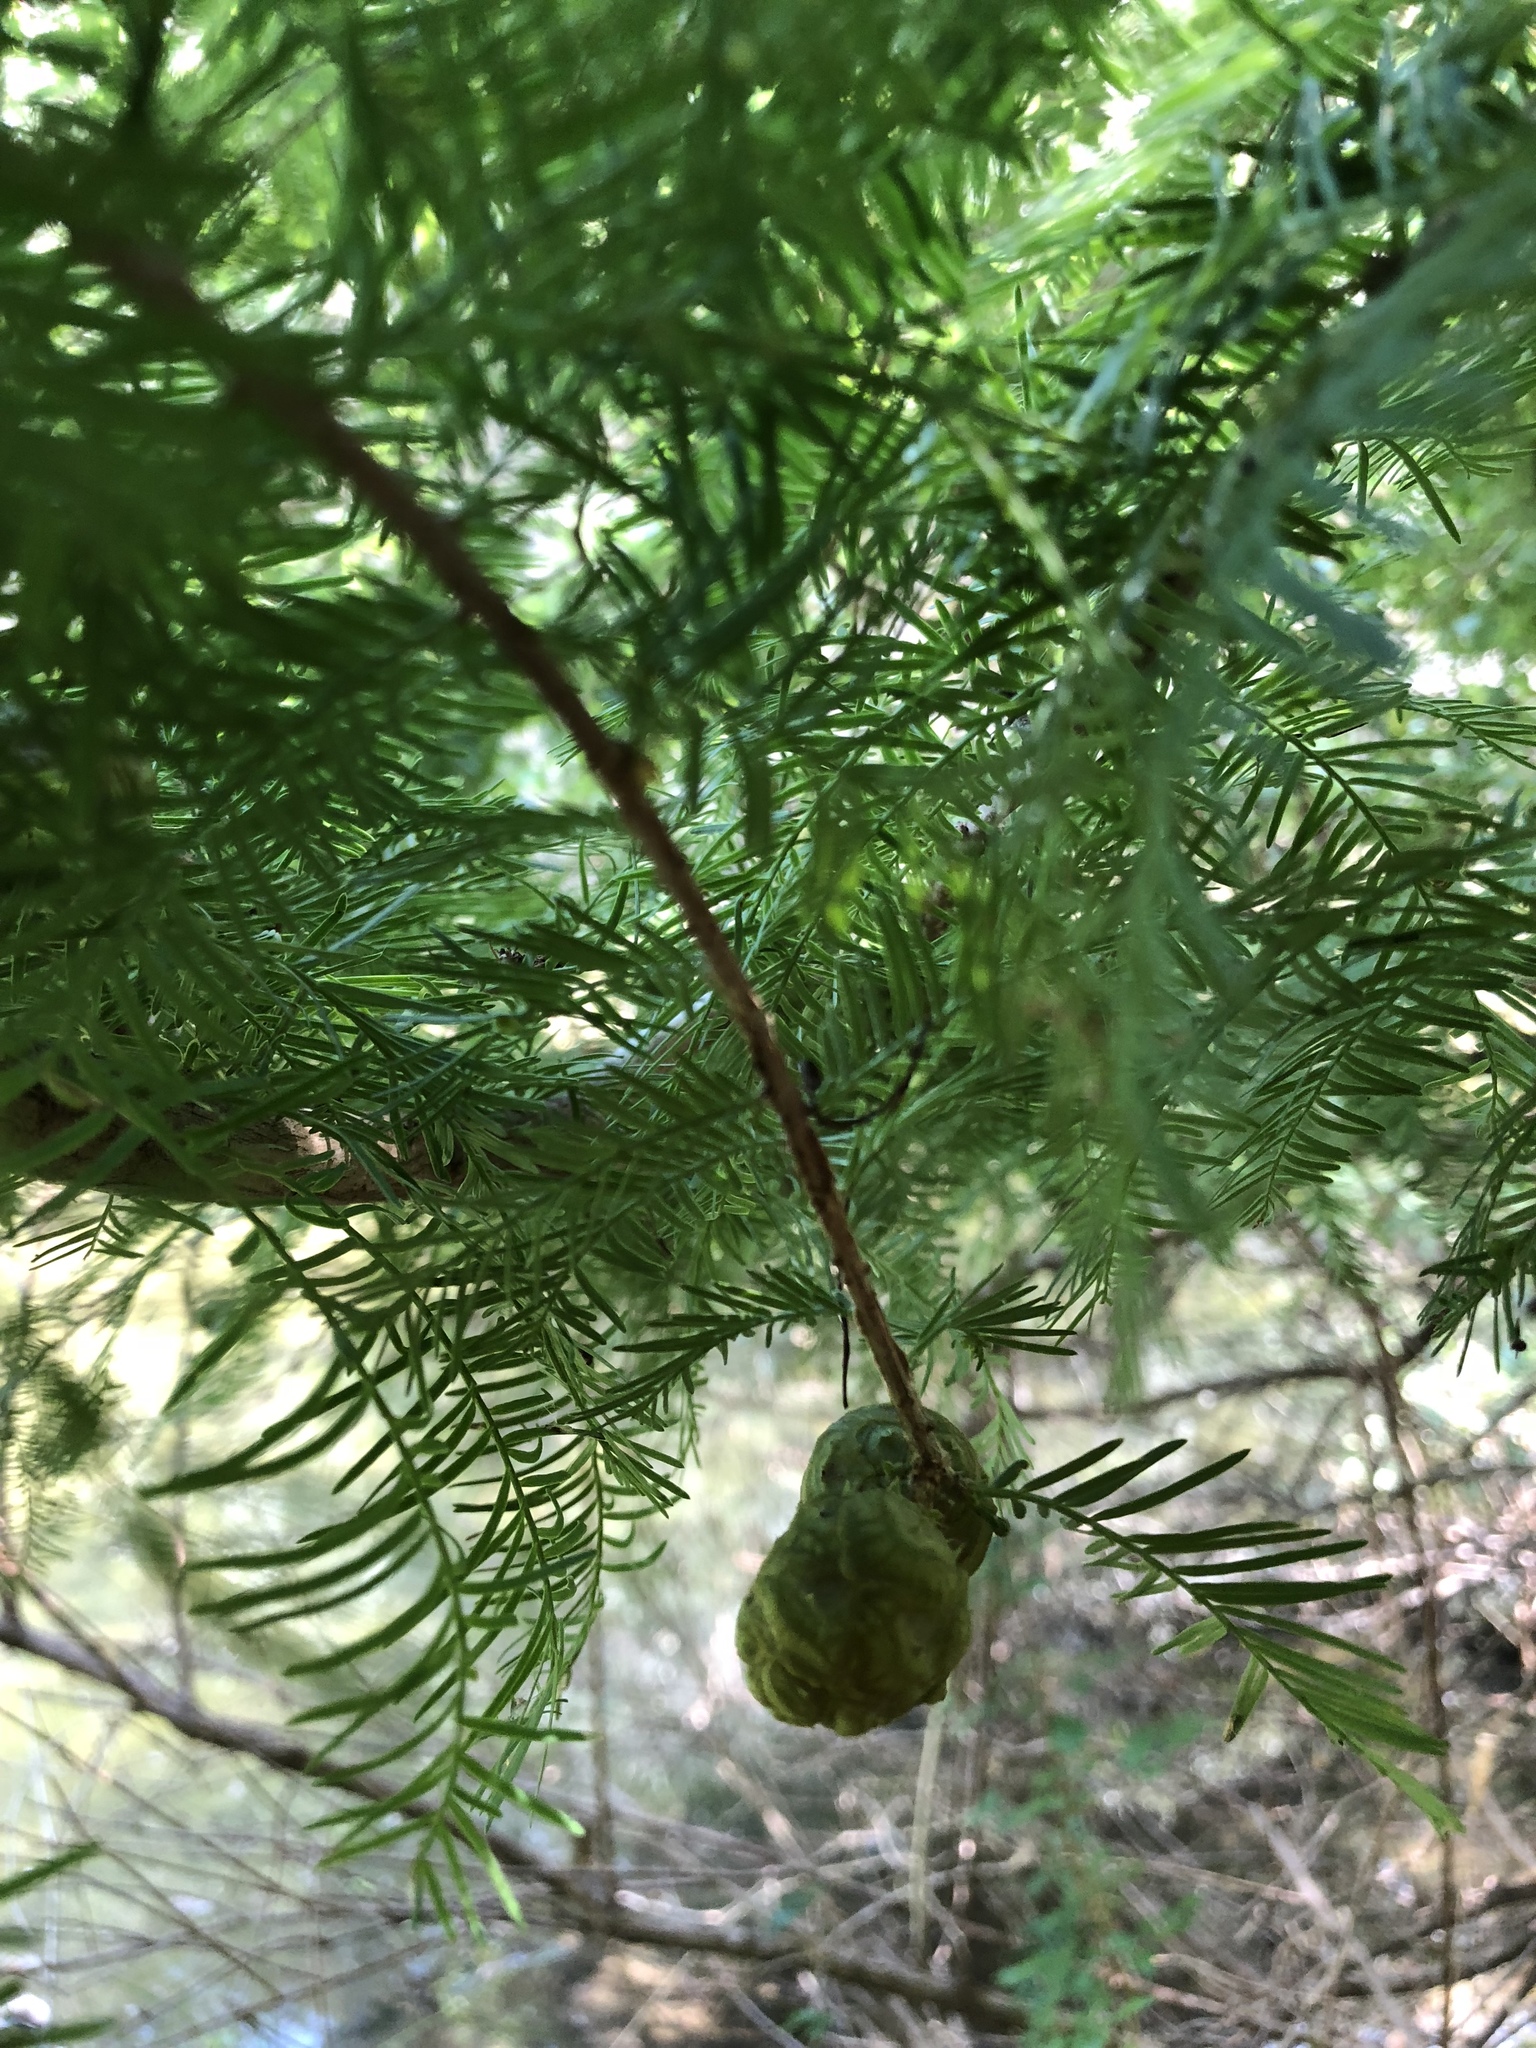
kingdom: Plantae
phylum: Tracheophyta
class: Pinopsida
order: Pinales
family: Cupressaceae
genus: Taxodium
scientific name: Taxodium distichum
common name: Bald cypress
